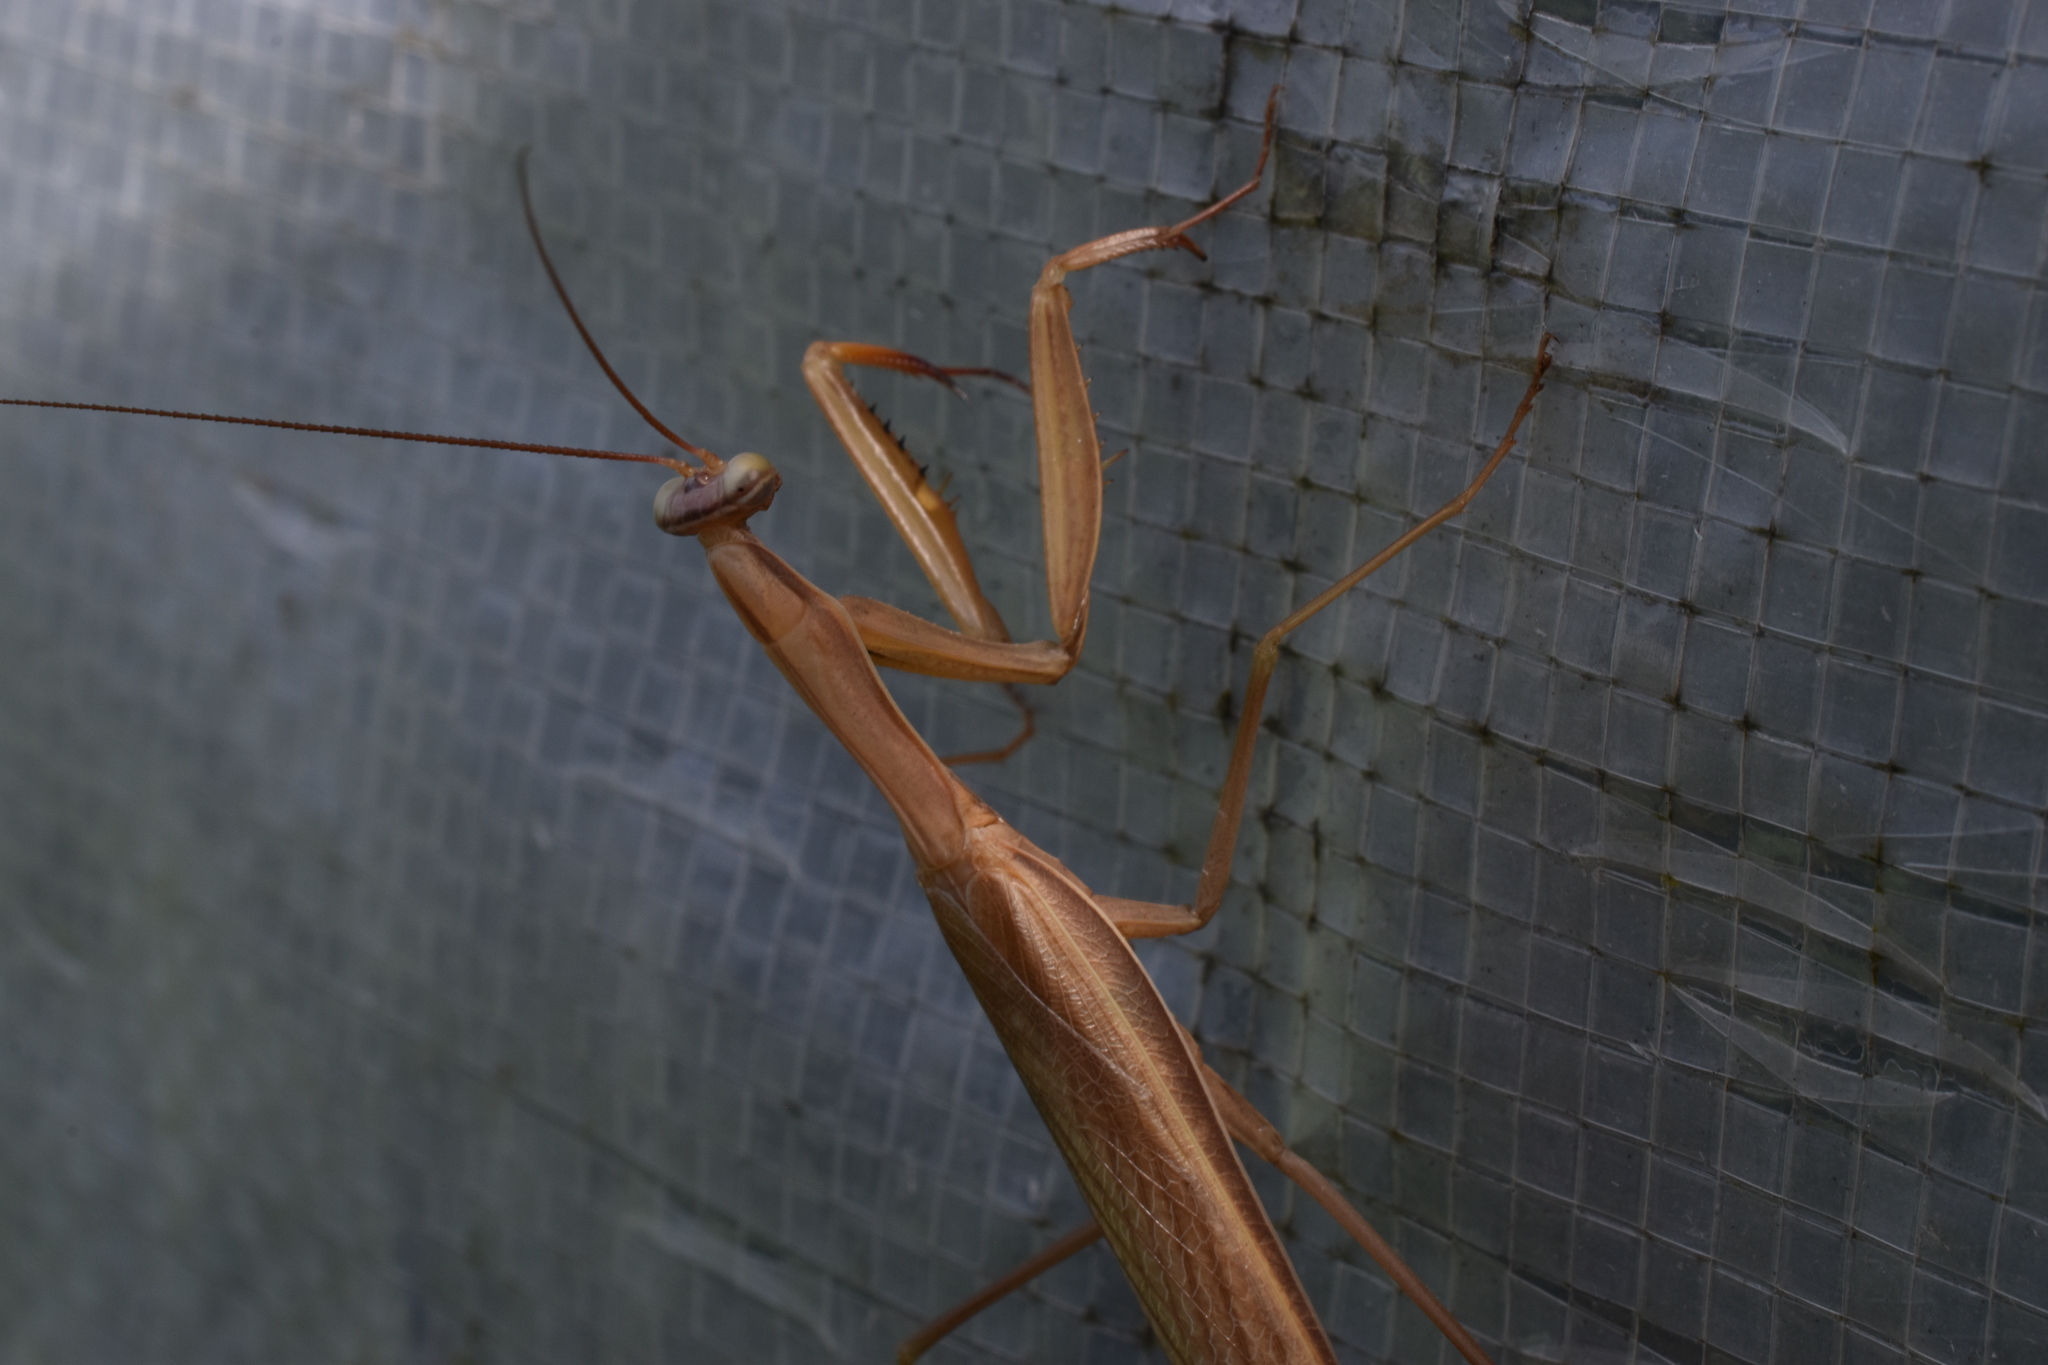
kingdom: Animalia
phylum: Arthropoda
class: Insecta
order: Mantodea
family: Mantidae
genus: Mantis
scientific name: Mantis religiosa
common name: Praying mantis
